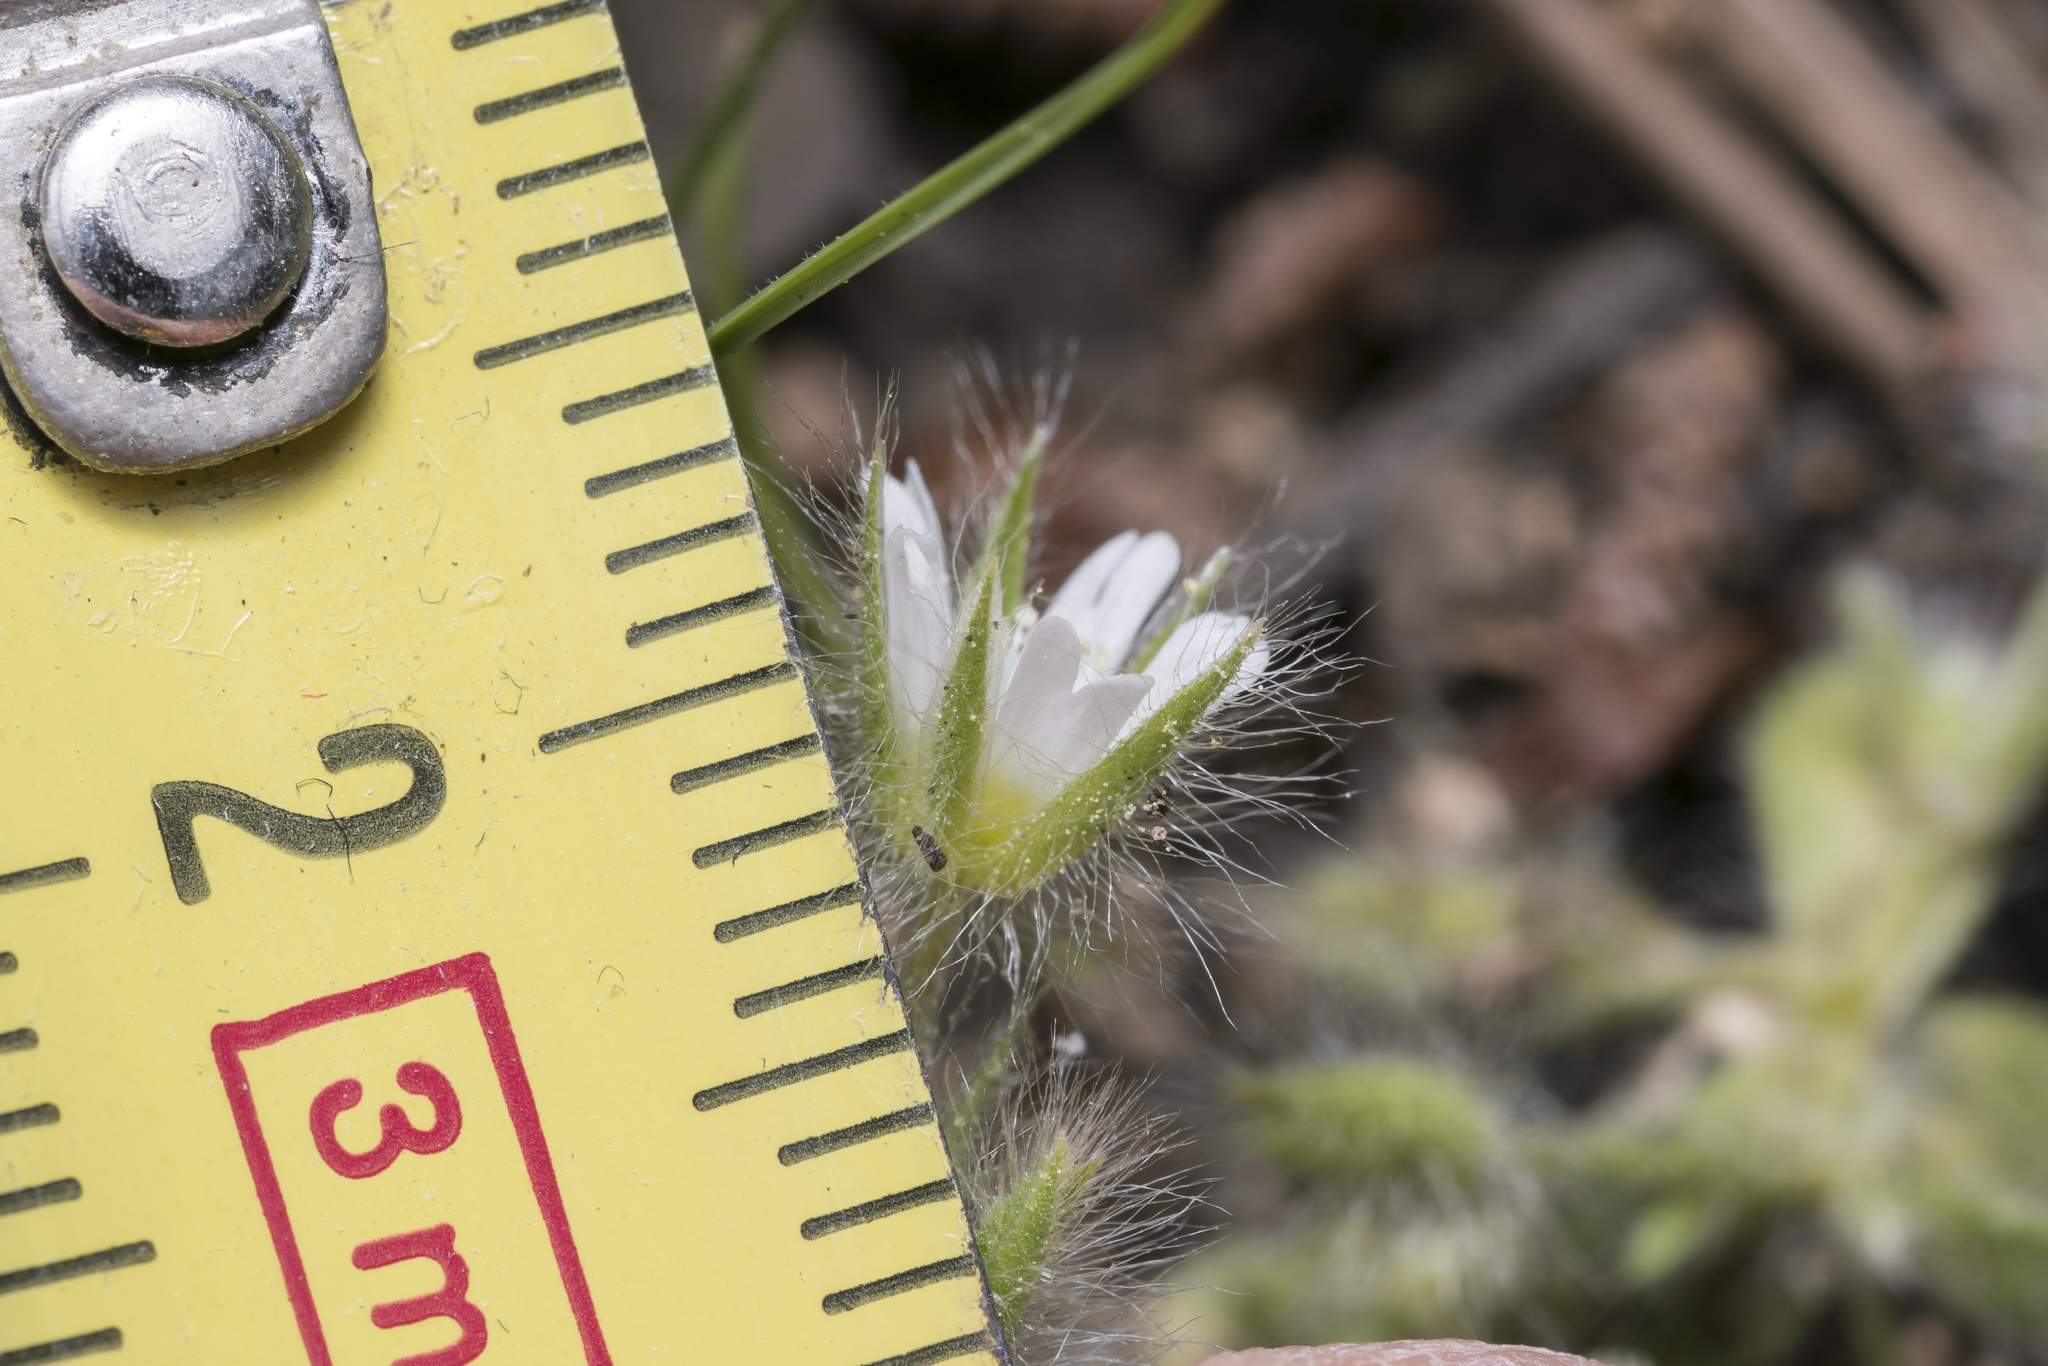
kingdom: Plantae
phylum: Tracheophyta
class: Magnoliopsida
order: Caryophyllales
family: Caryophyllaceae
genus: Cerastium
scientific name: Cerastium comatum
